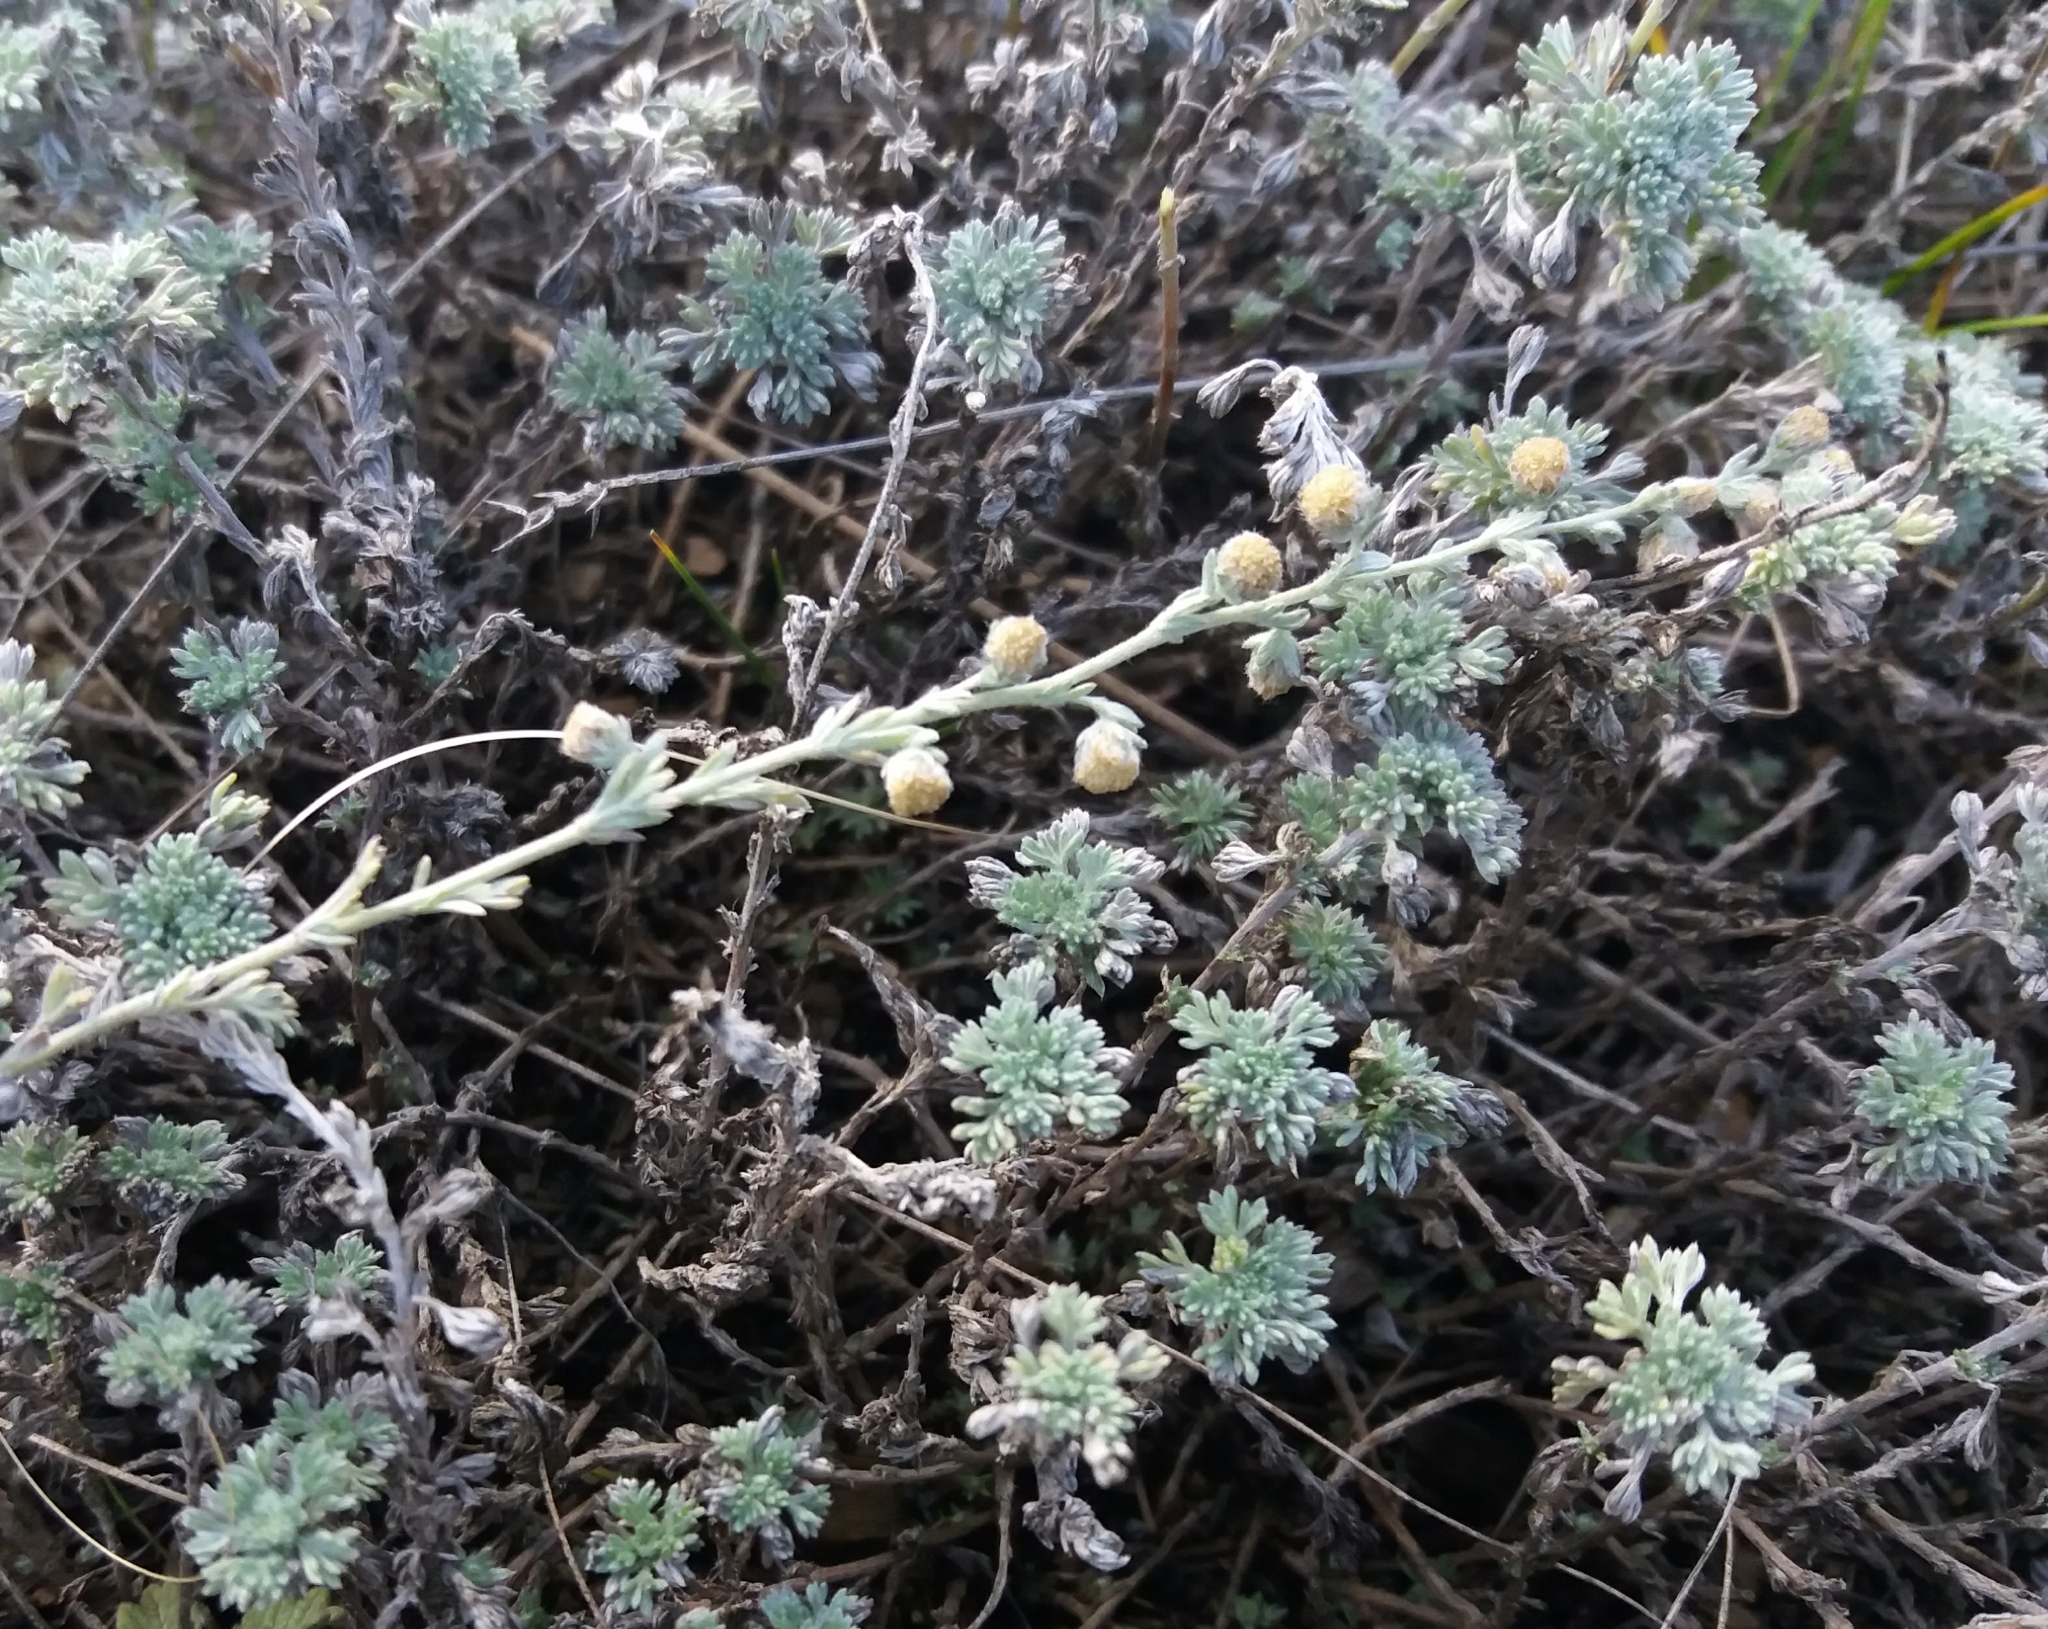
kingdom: Plantae
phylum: Tracheophyta
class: Magnoliopsida
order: Asterales
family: Asteraceae
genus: Artemisia
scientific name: Artemisia frigida
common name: Prairie sagewort
